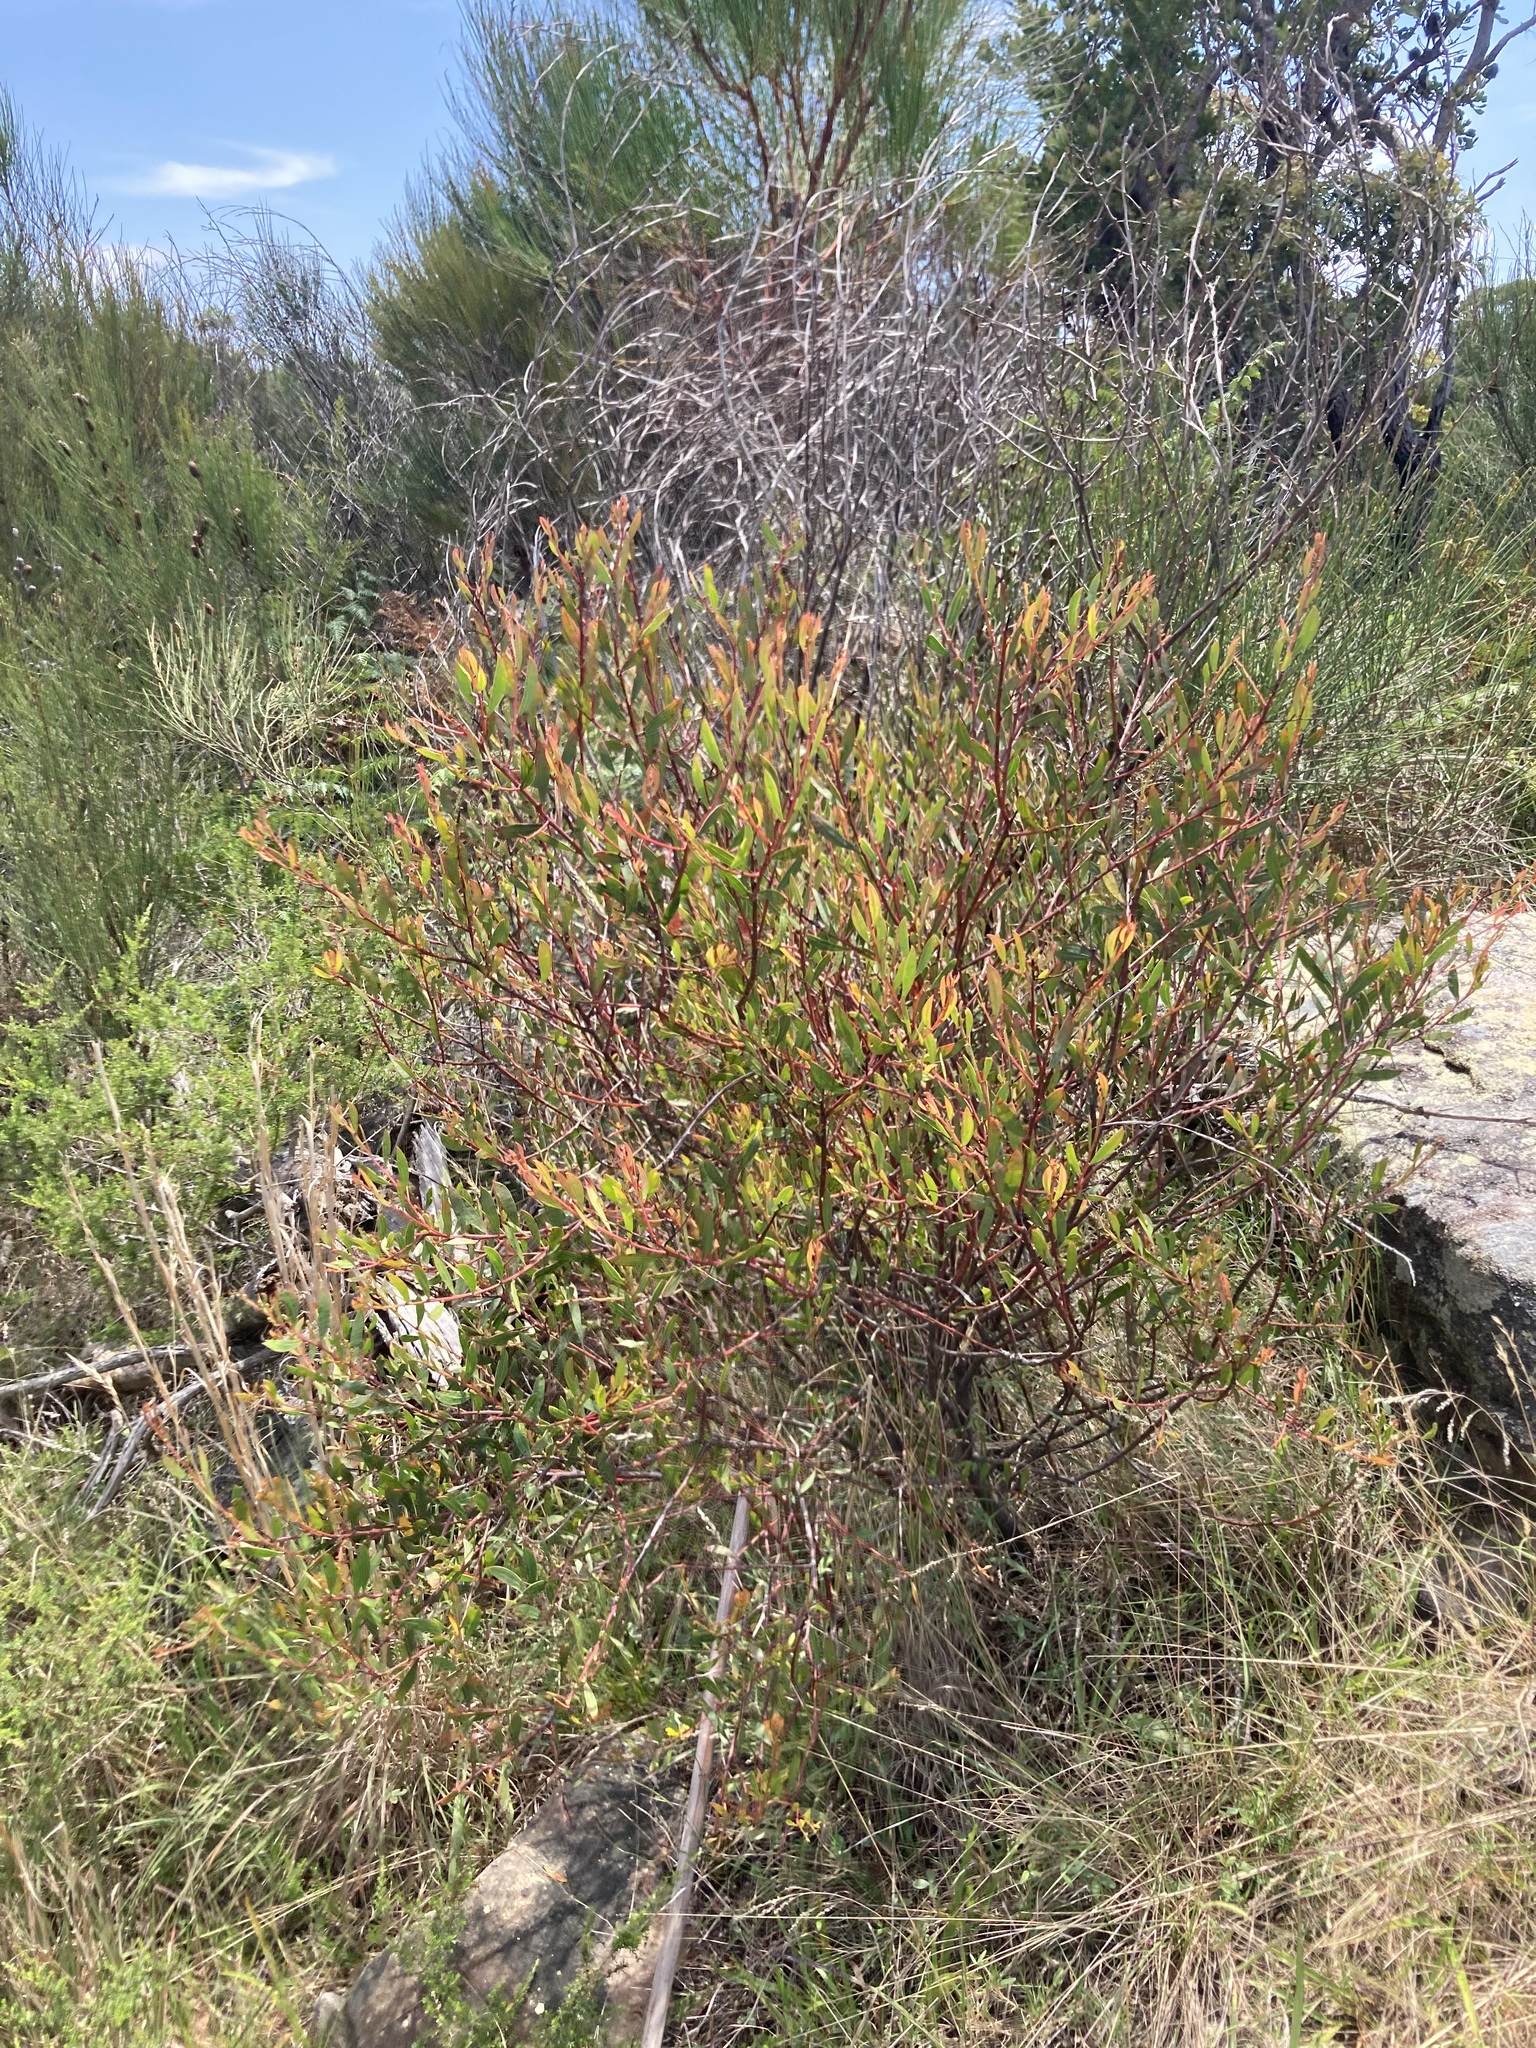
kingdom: Plantae
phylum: Tracheophyta
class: Magnoliopsida
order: Fabales
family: Fabaceae
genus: Acacia
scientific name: Acacia myrtifolia
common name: Myrtle wattle
